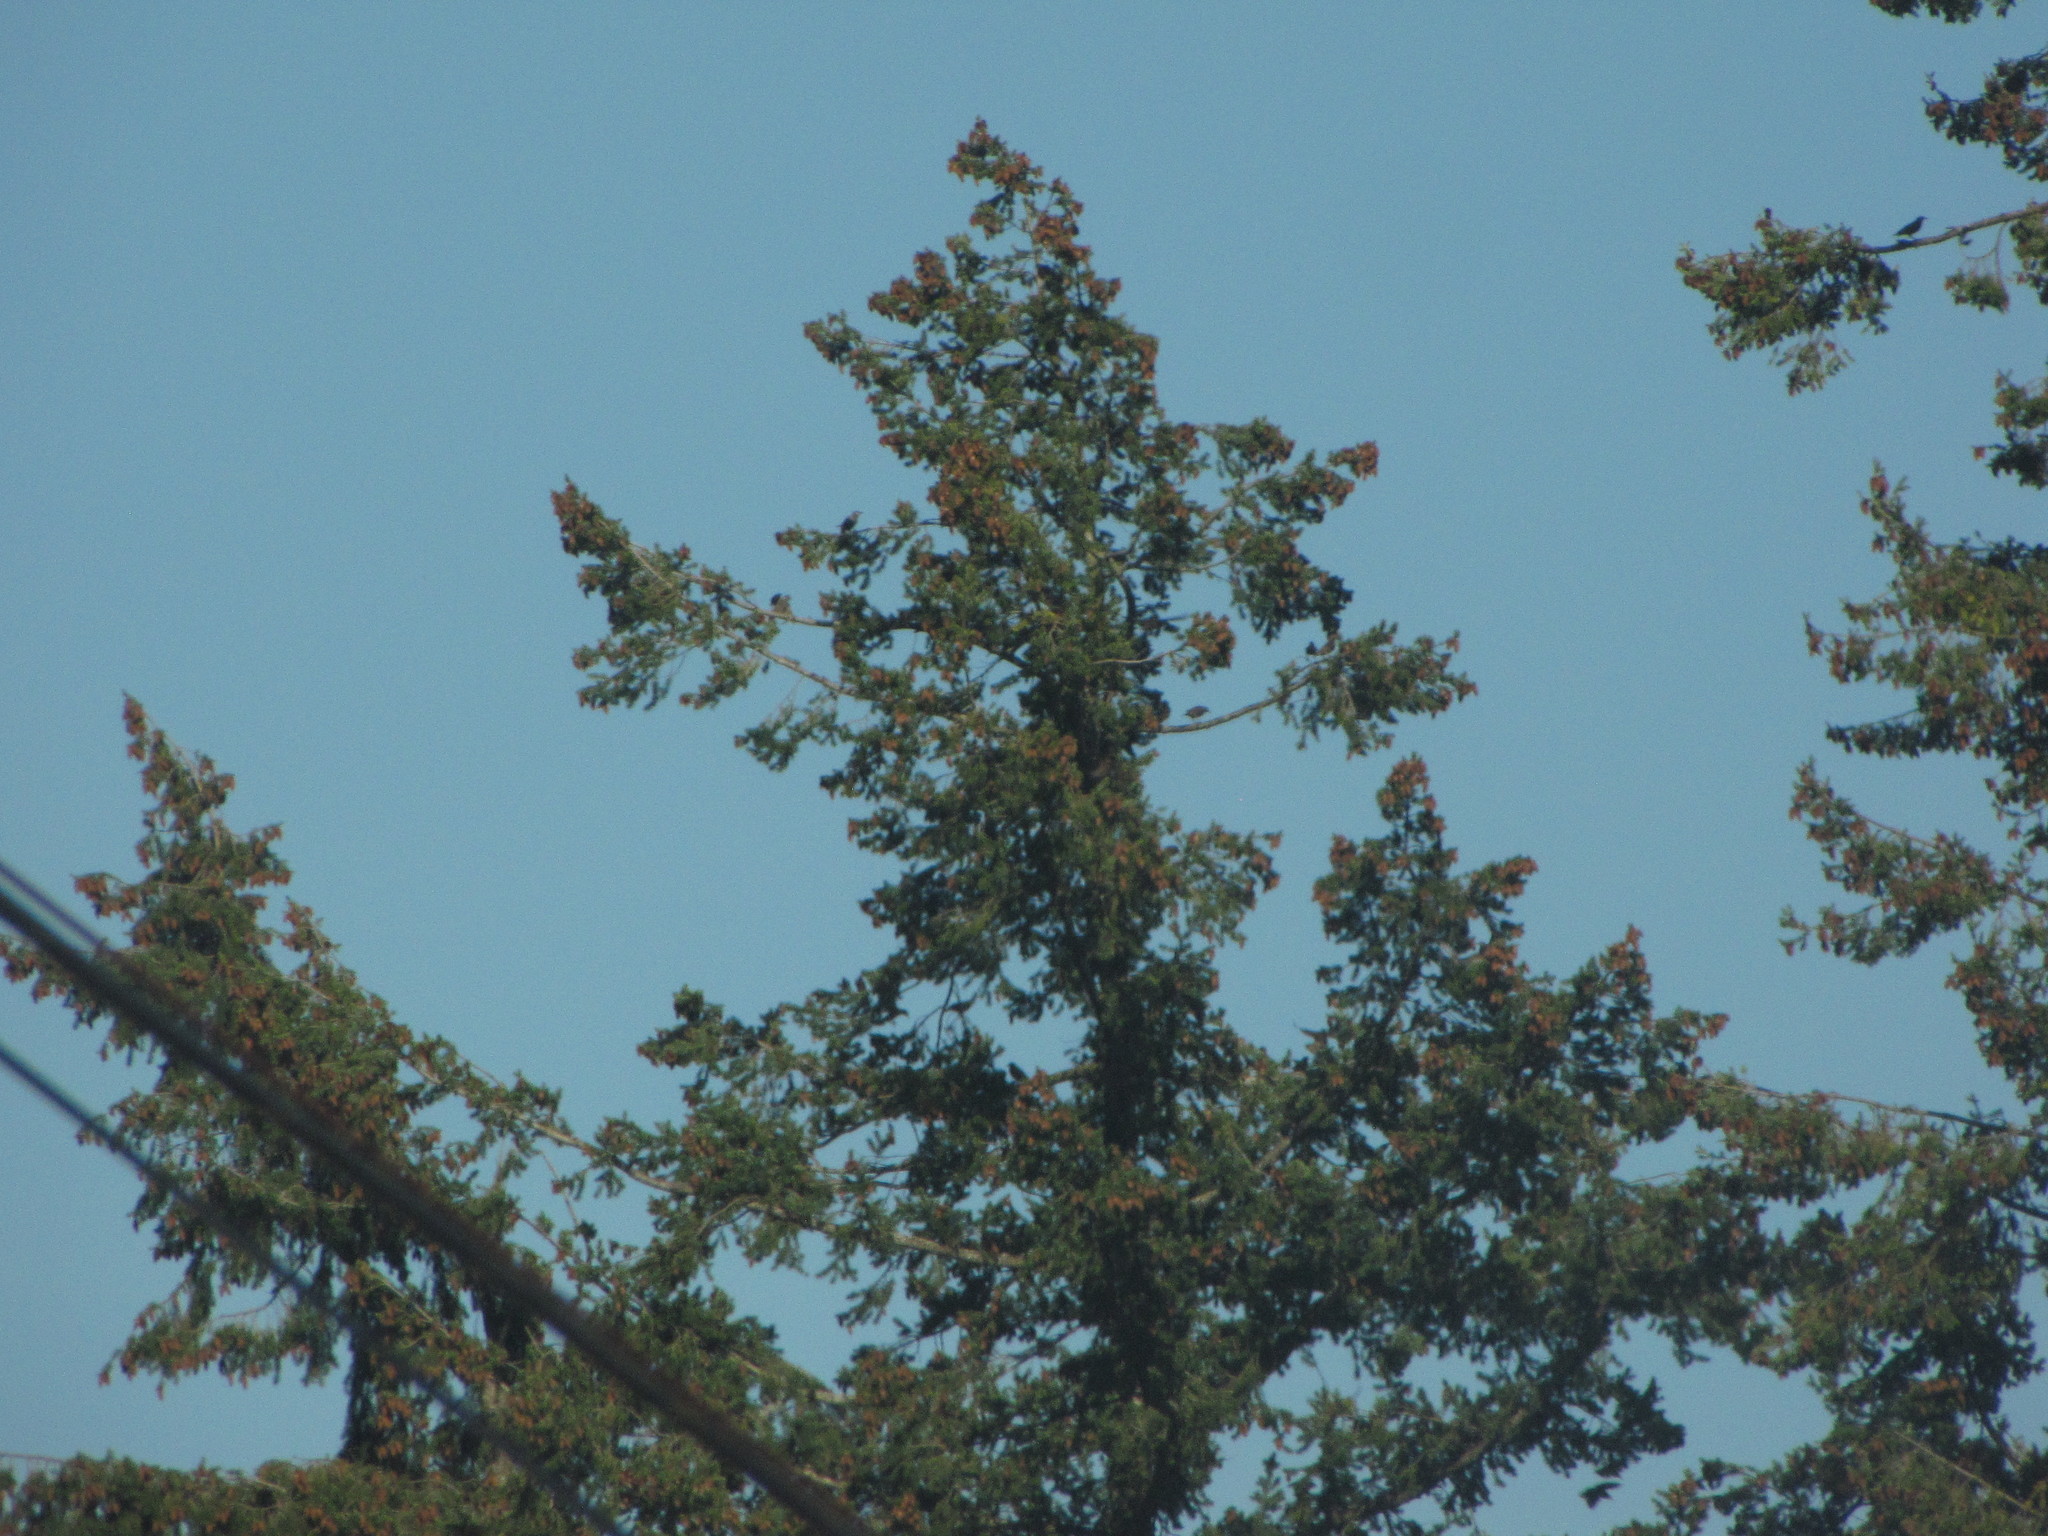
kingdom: Animalia
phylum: Chordata
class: Aves
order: Passeriformes
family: Sturnidae
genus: Sturnus
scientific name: Sturnus vulgaris
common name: Common starling
